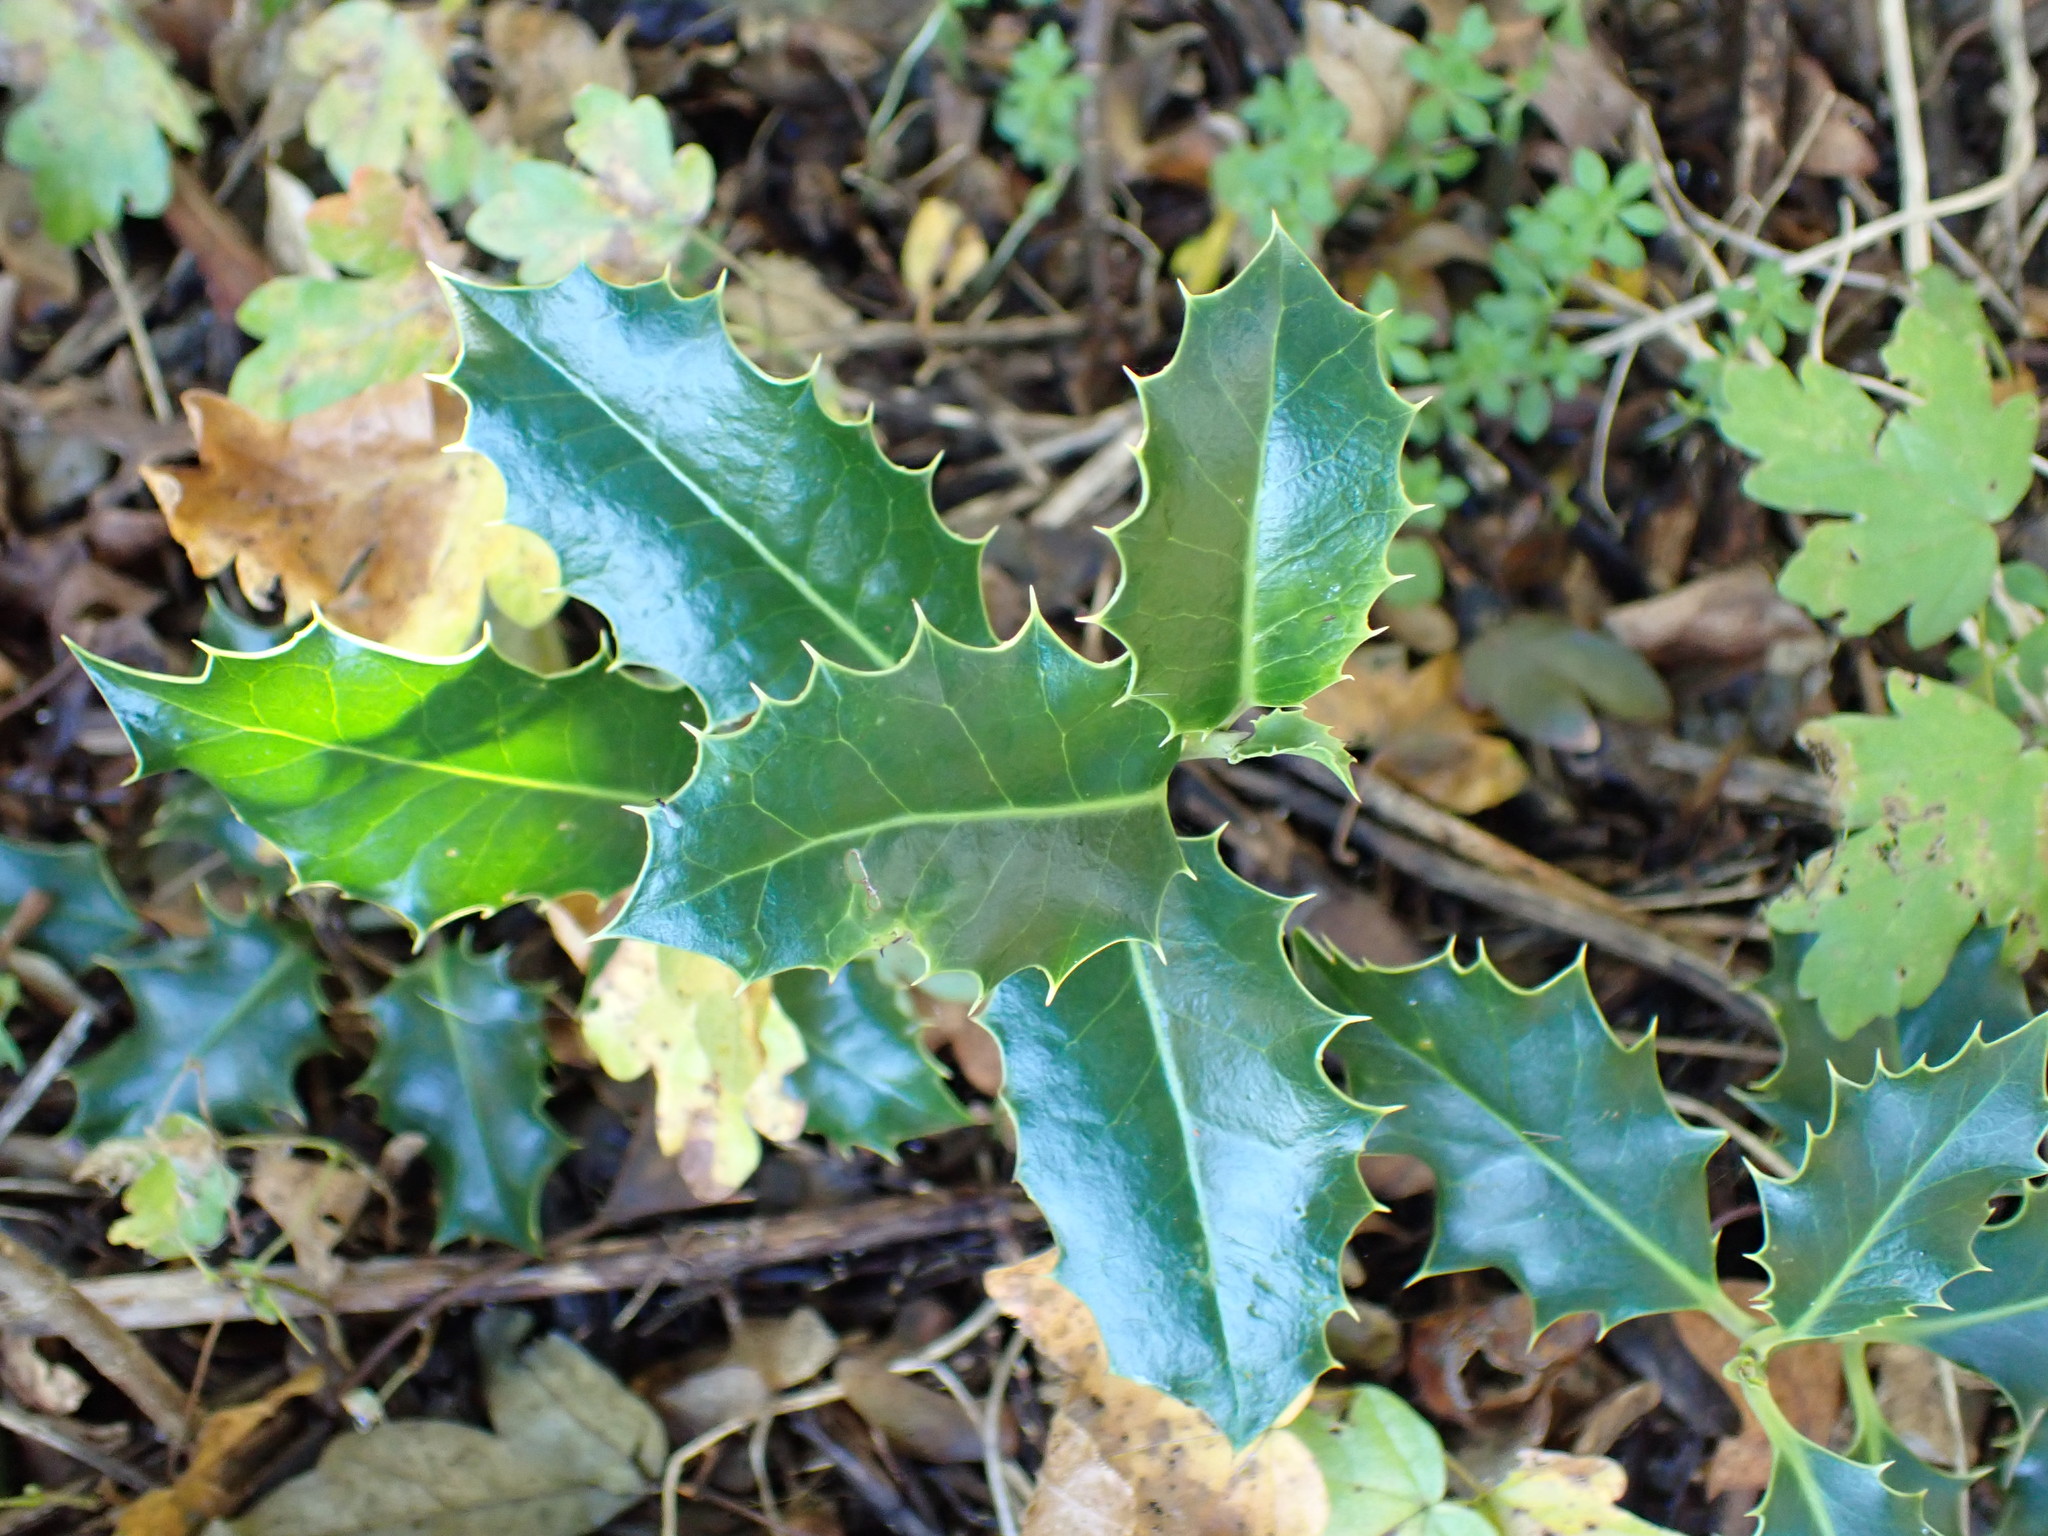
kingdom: Plantae
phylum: Tracheophyta
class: Magnoliopsida
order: Aquifoliales
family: Aquifoliaceae
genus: Ilex
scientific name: Ilex aquifolium
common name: English holly
